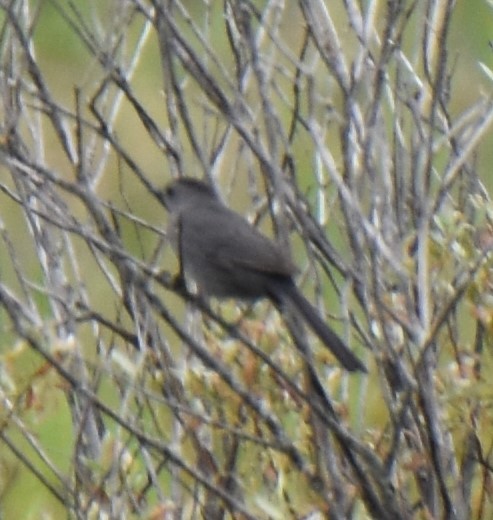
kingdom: Animalia
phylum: Chordata
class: Aves
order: Passeriformes
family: Mimidae
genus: Dumetella
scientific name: Dumetella carolinensis
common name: Gray catbird
